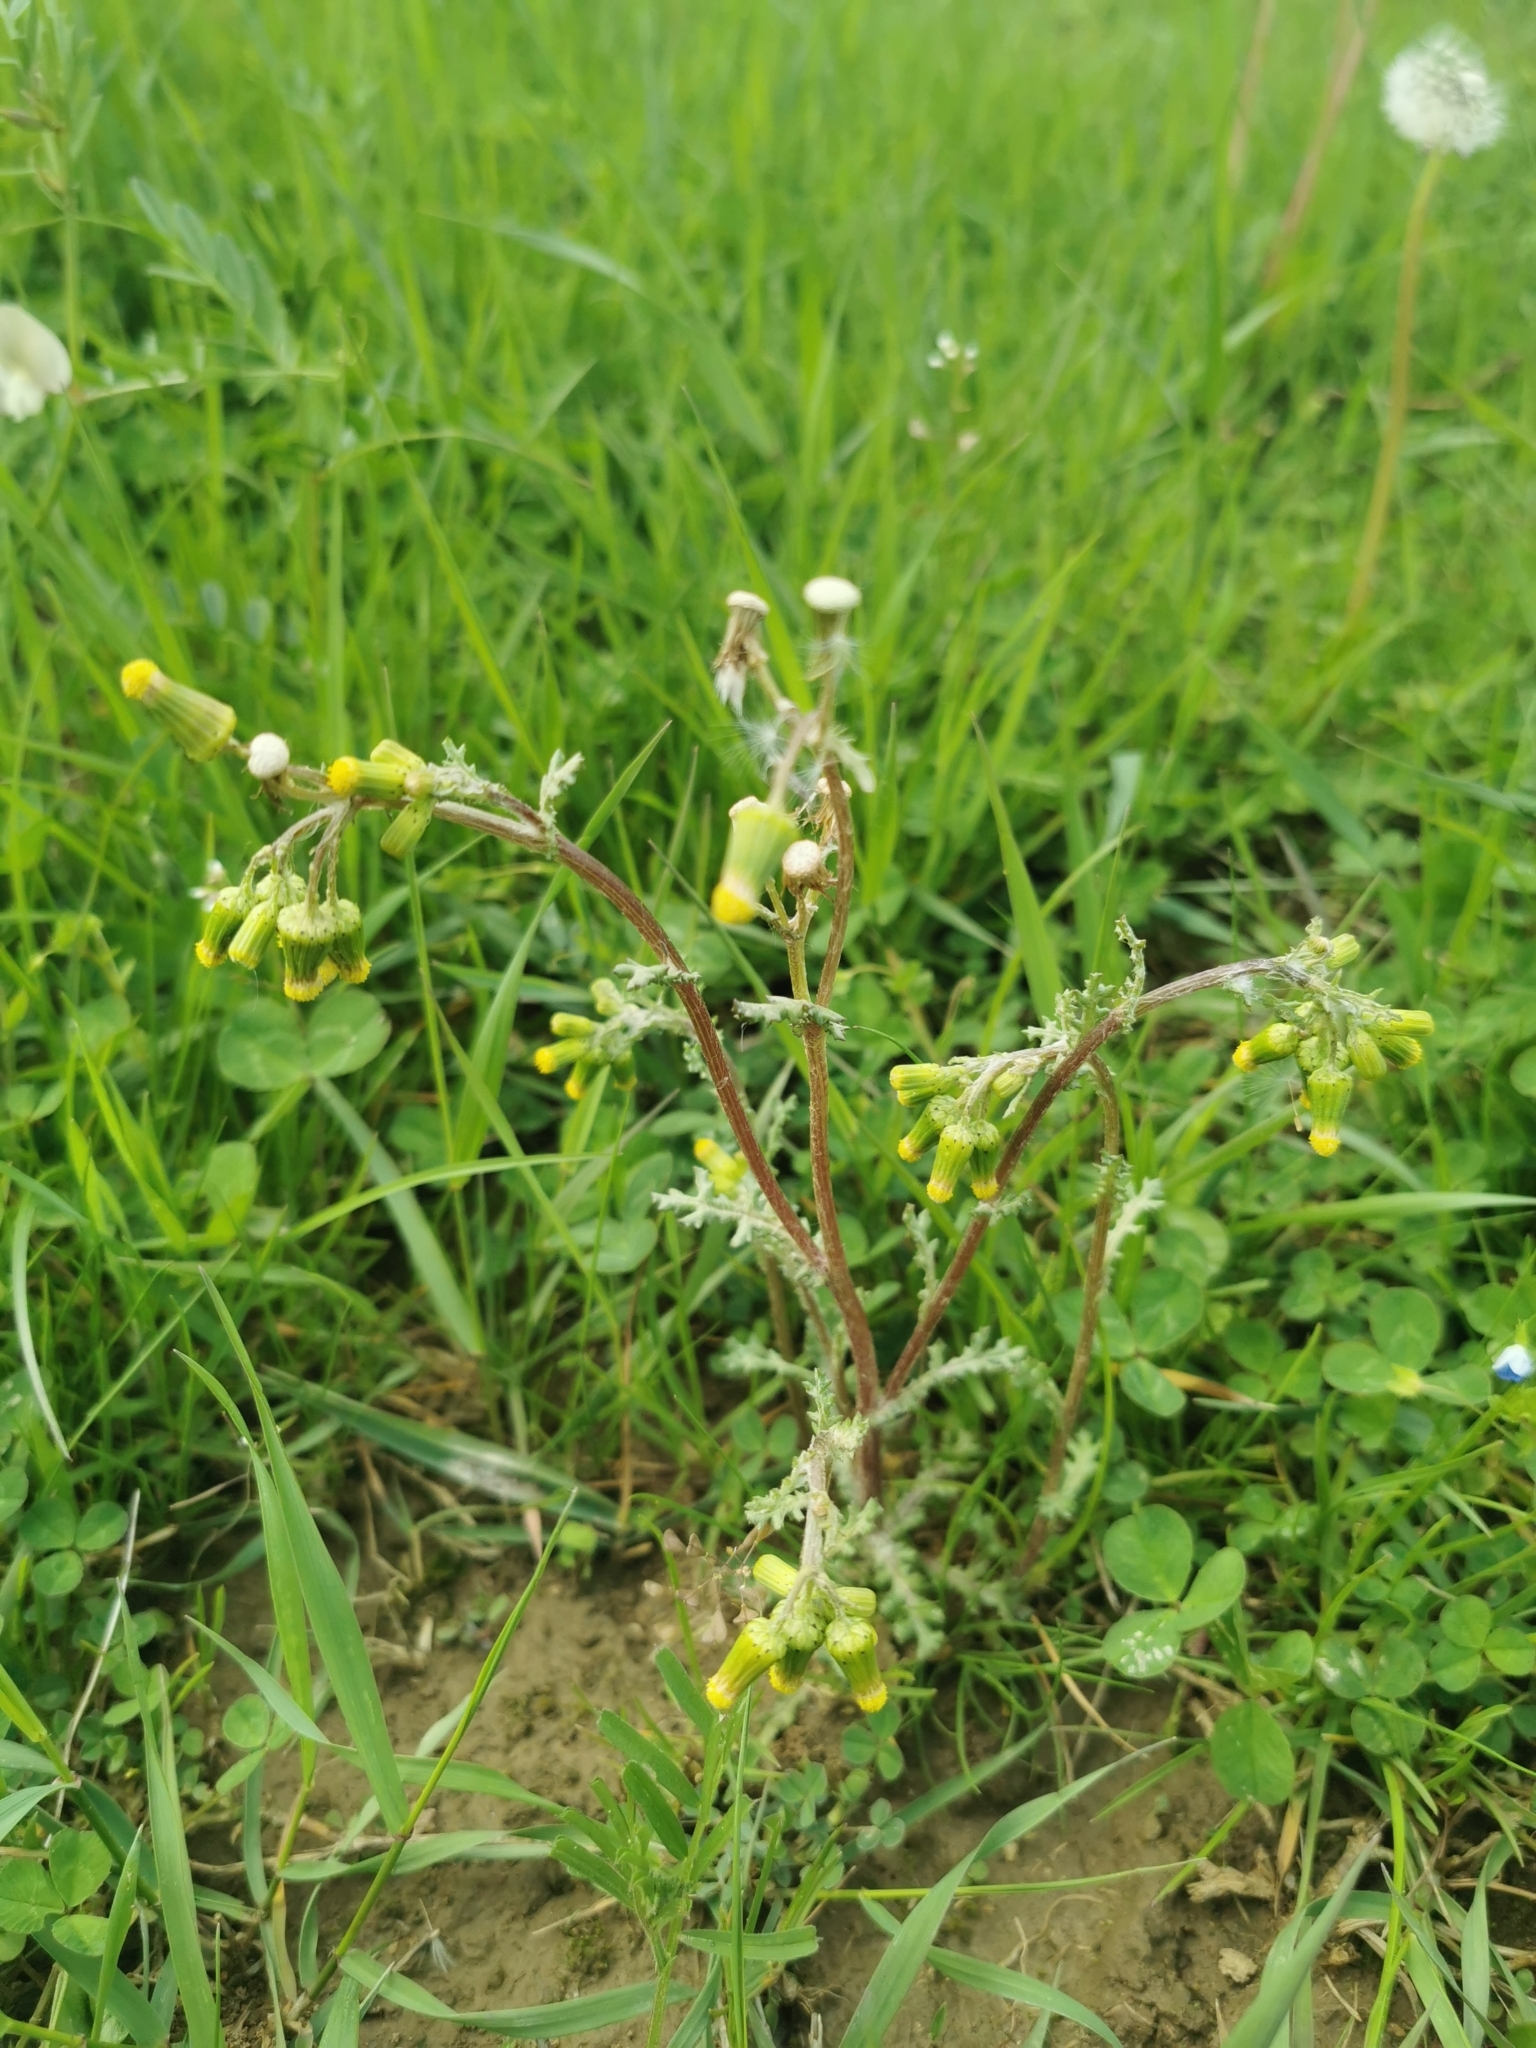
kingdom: Plantae
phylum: Tracheophyta
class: Magnoliopsida
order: Asterales
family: Asteraceae
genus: Senecio
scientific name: Senecio vulgaris
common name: Old-man-in-the-spring
